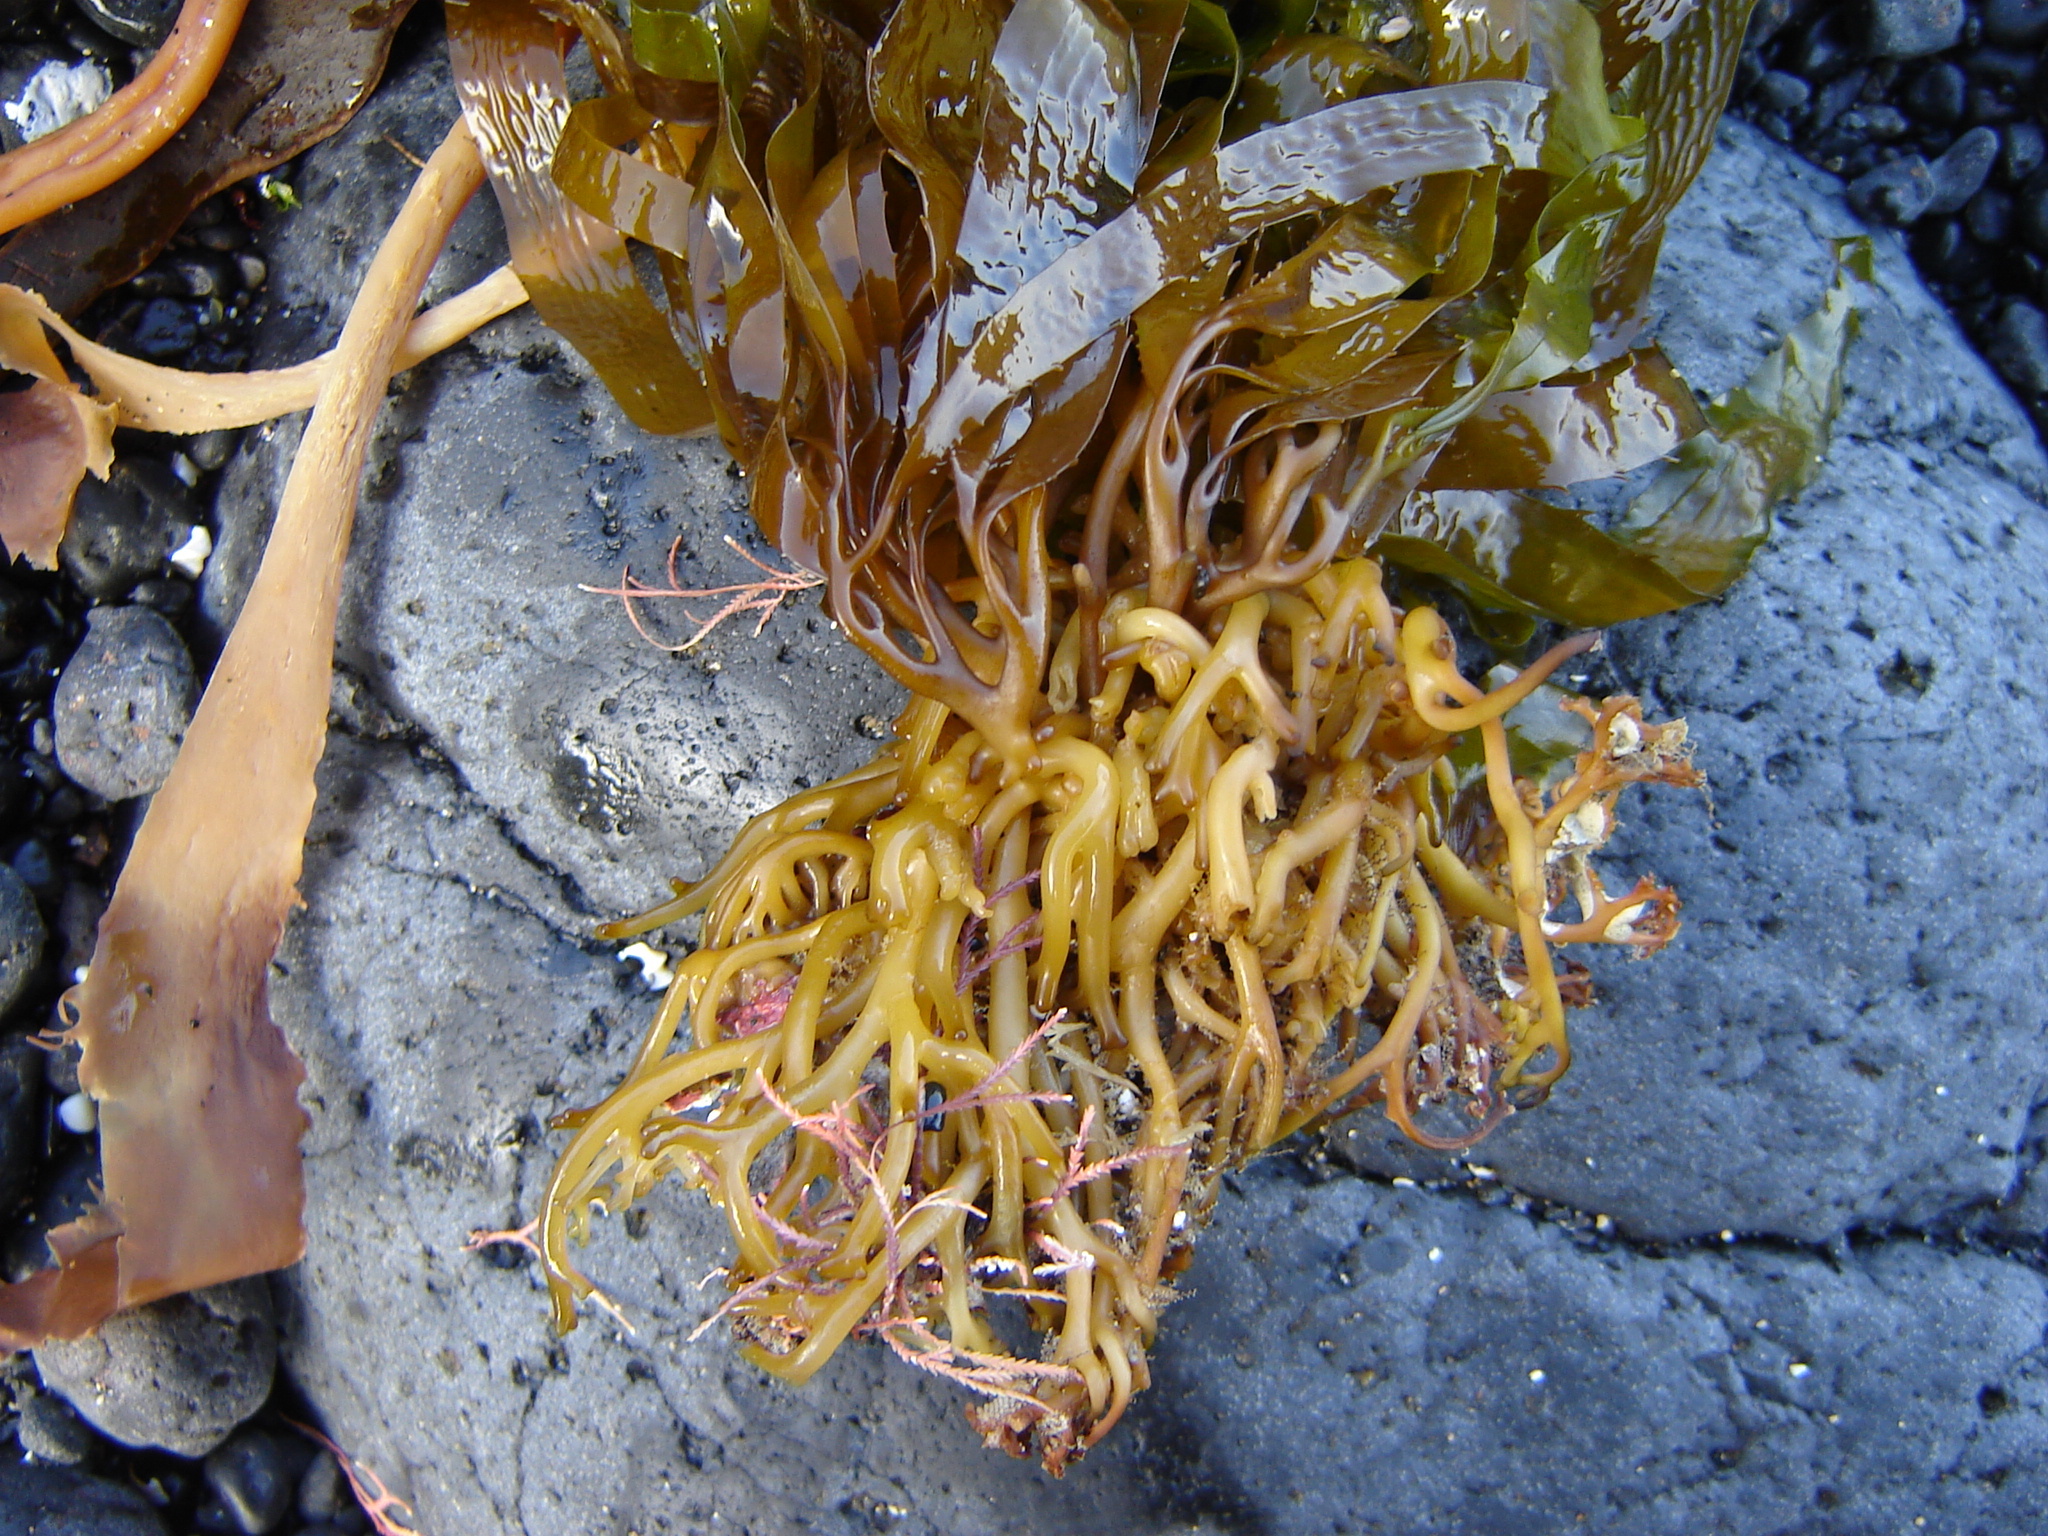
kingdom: Chromista
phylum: Ochrophyta
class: Phaeophyceae
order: Laminariales
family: Laminariaceae
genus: Macrocystis
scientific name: Macrocystis pyrifera
